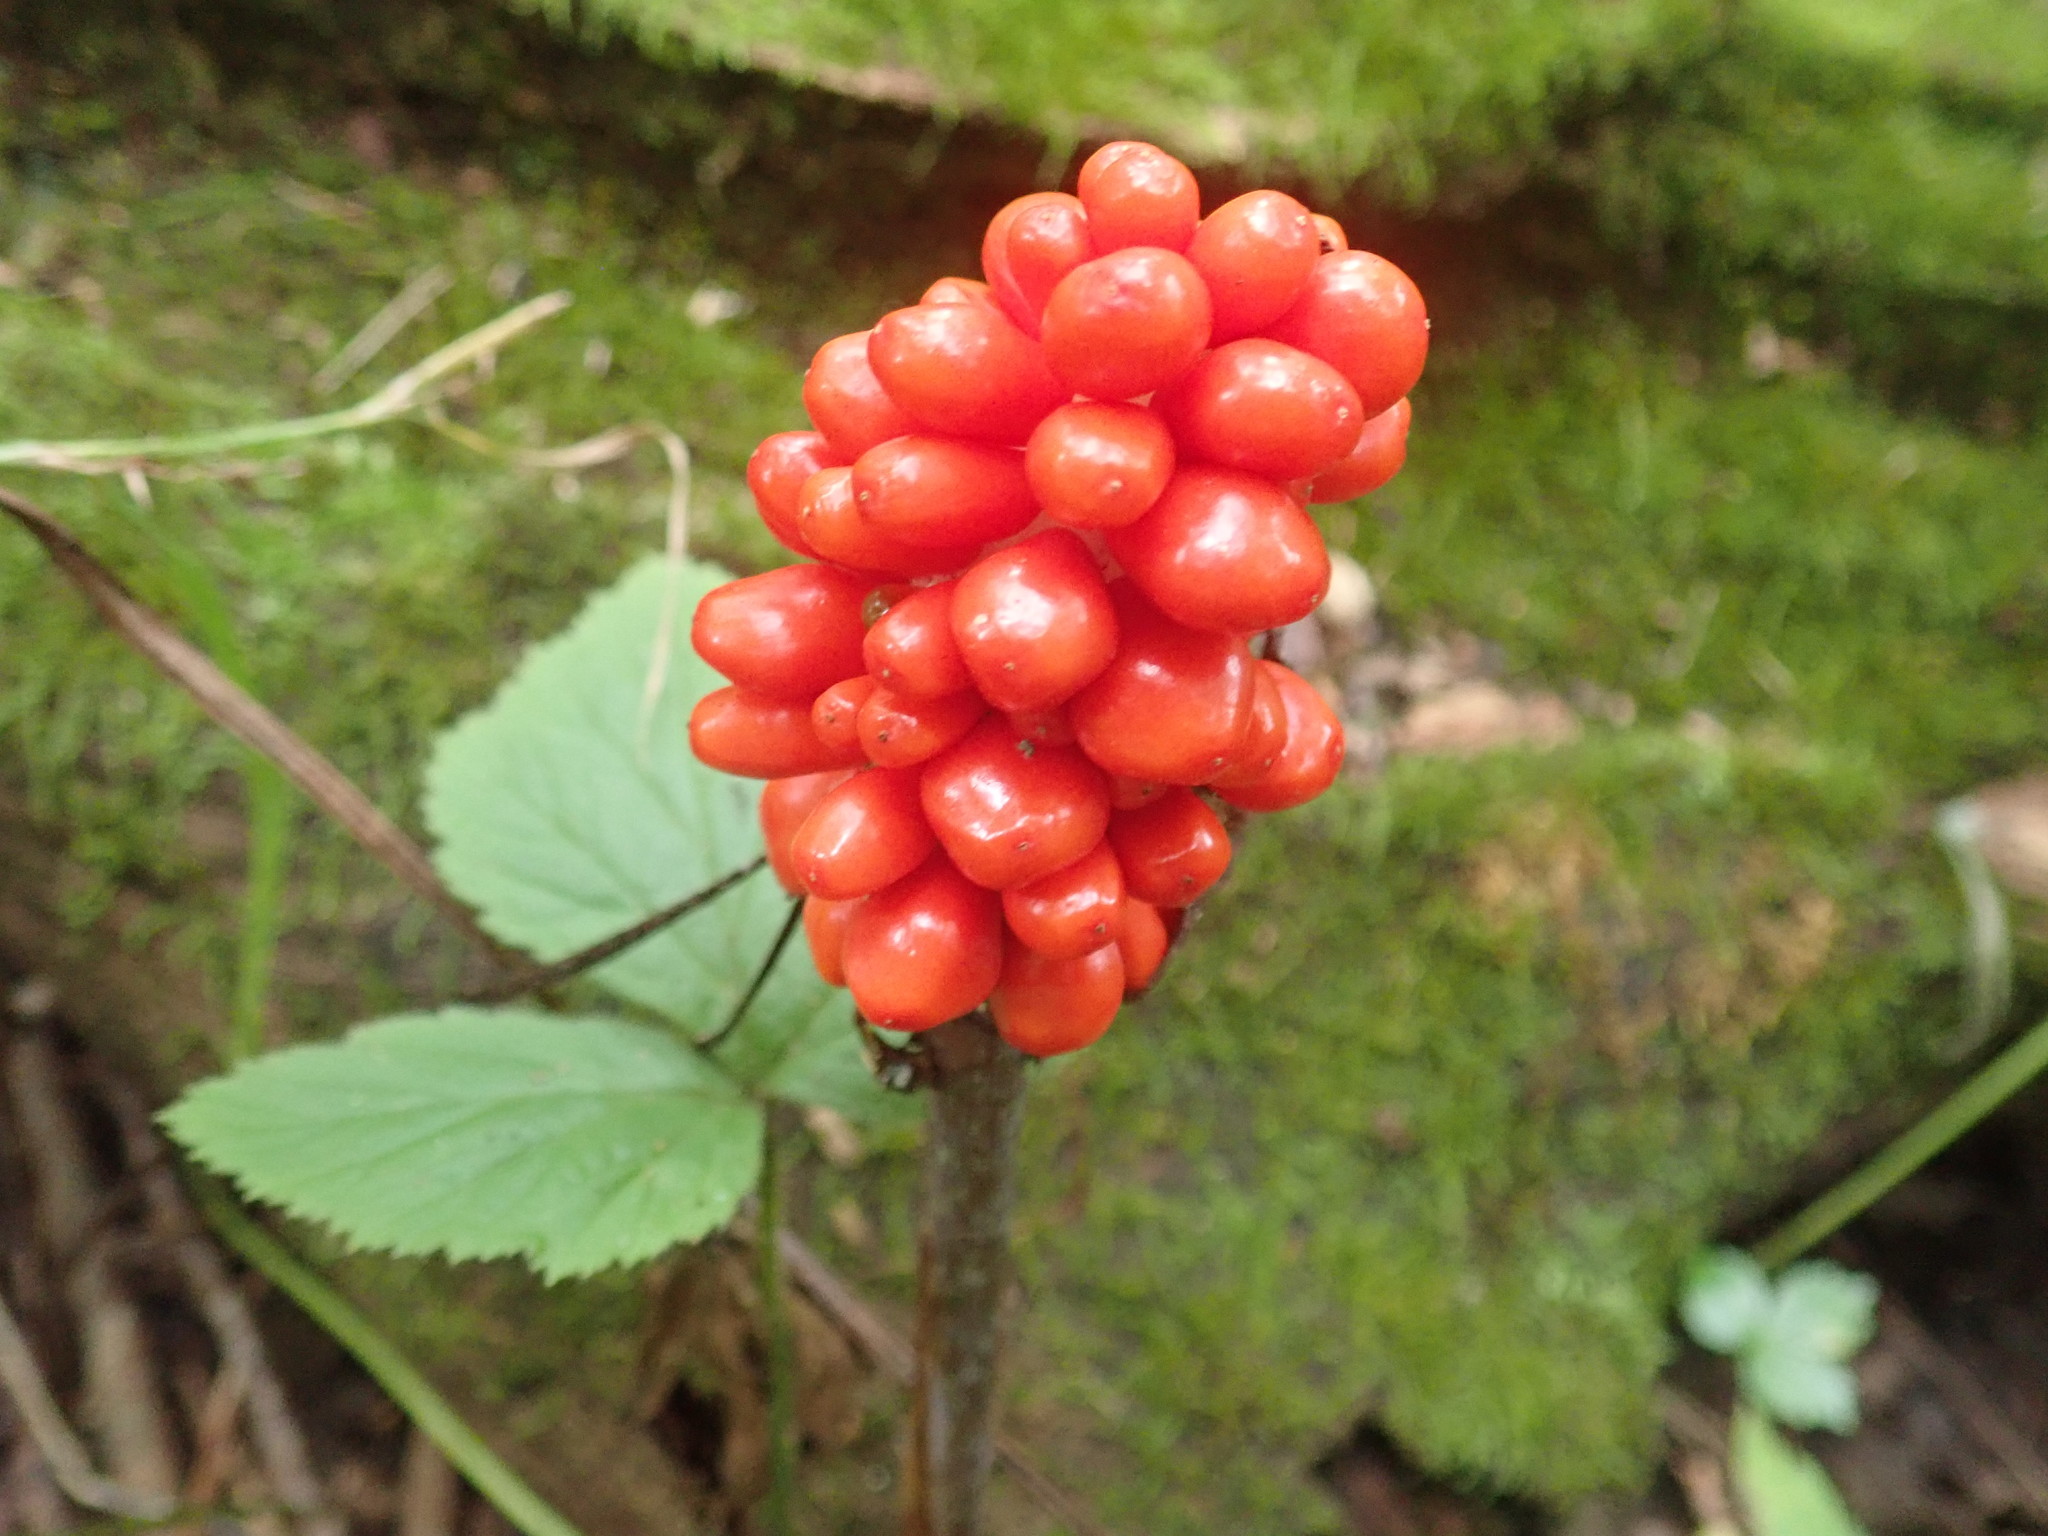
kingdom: Plantae
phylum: Tracheophyta
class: Liliopsida
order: Alismatales
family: Araceae
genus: Arisaema
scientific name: Arisaema triphyllum
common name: Jack-in-the-pulpit
